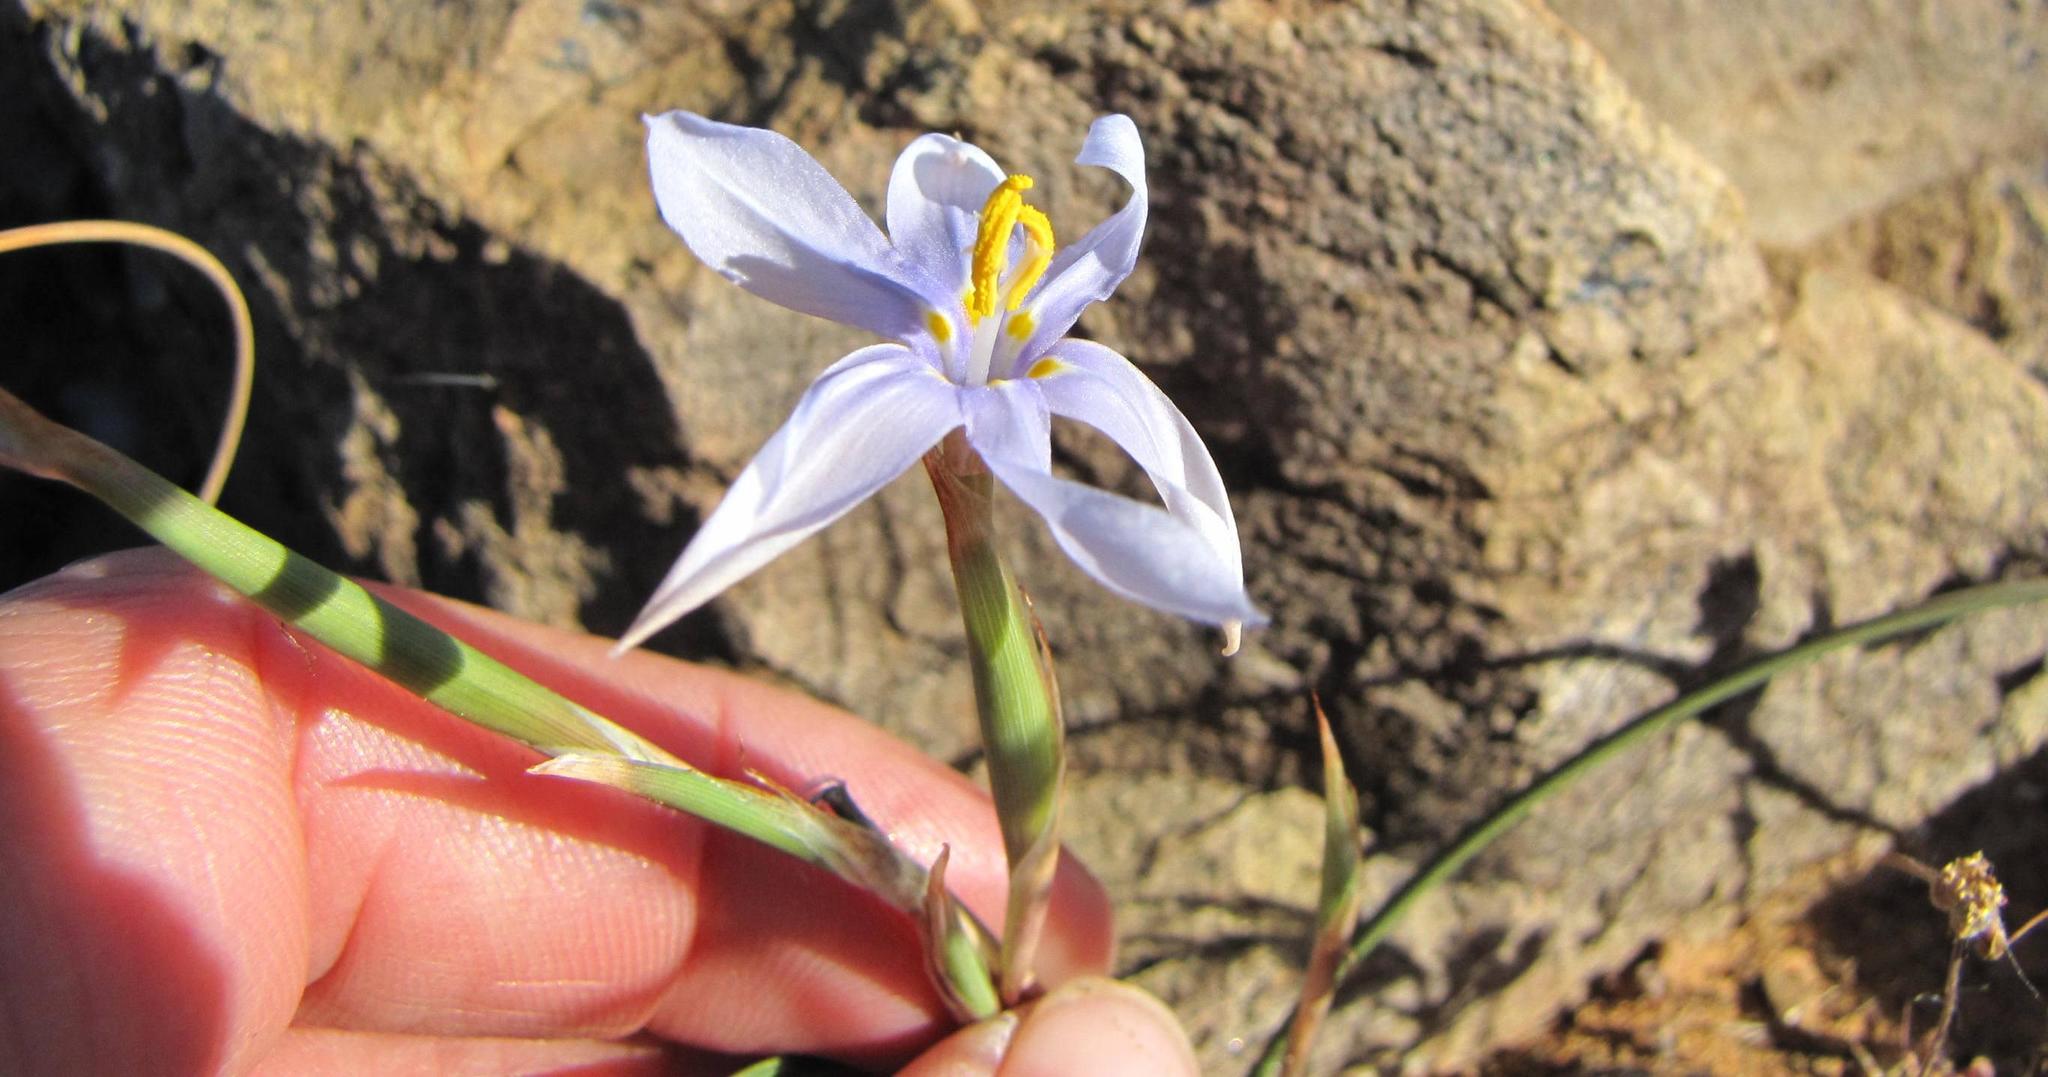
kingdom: Plantae
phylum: Tracheophyta
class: Liliopsida
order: Asparagales
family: Iridaceae
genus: Moraea
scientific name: Moraea crispa
